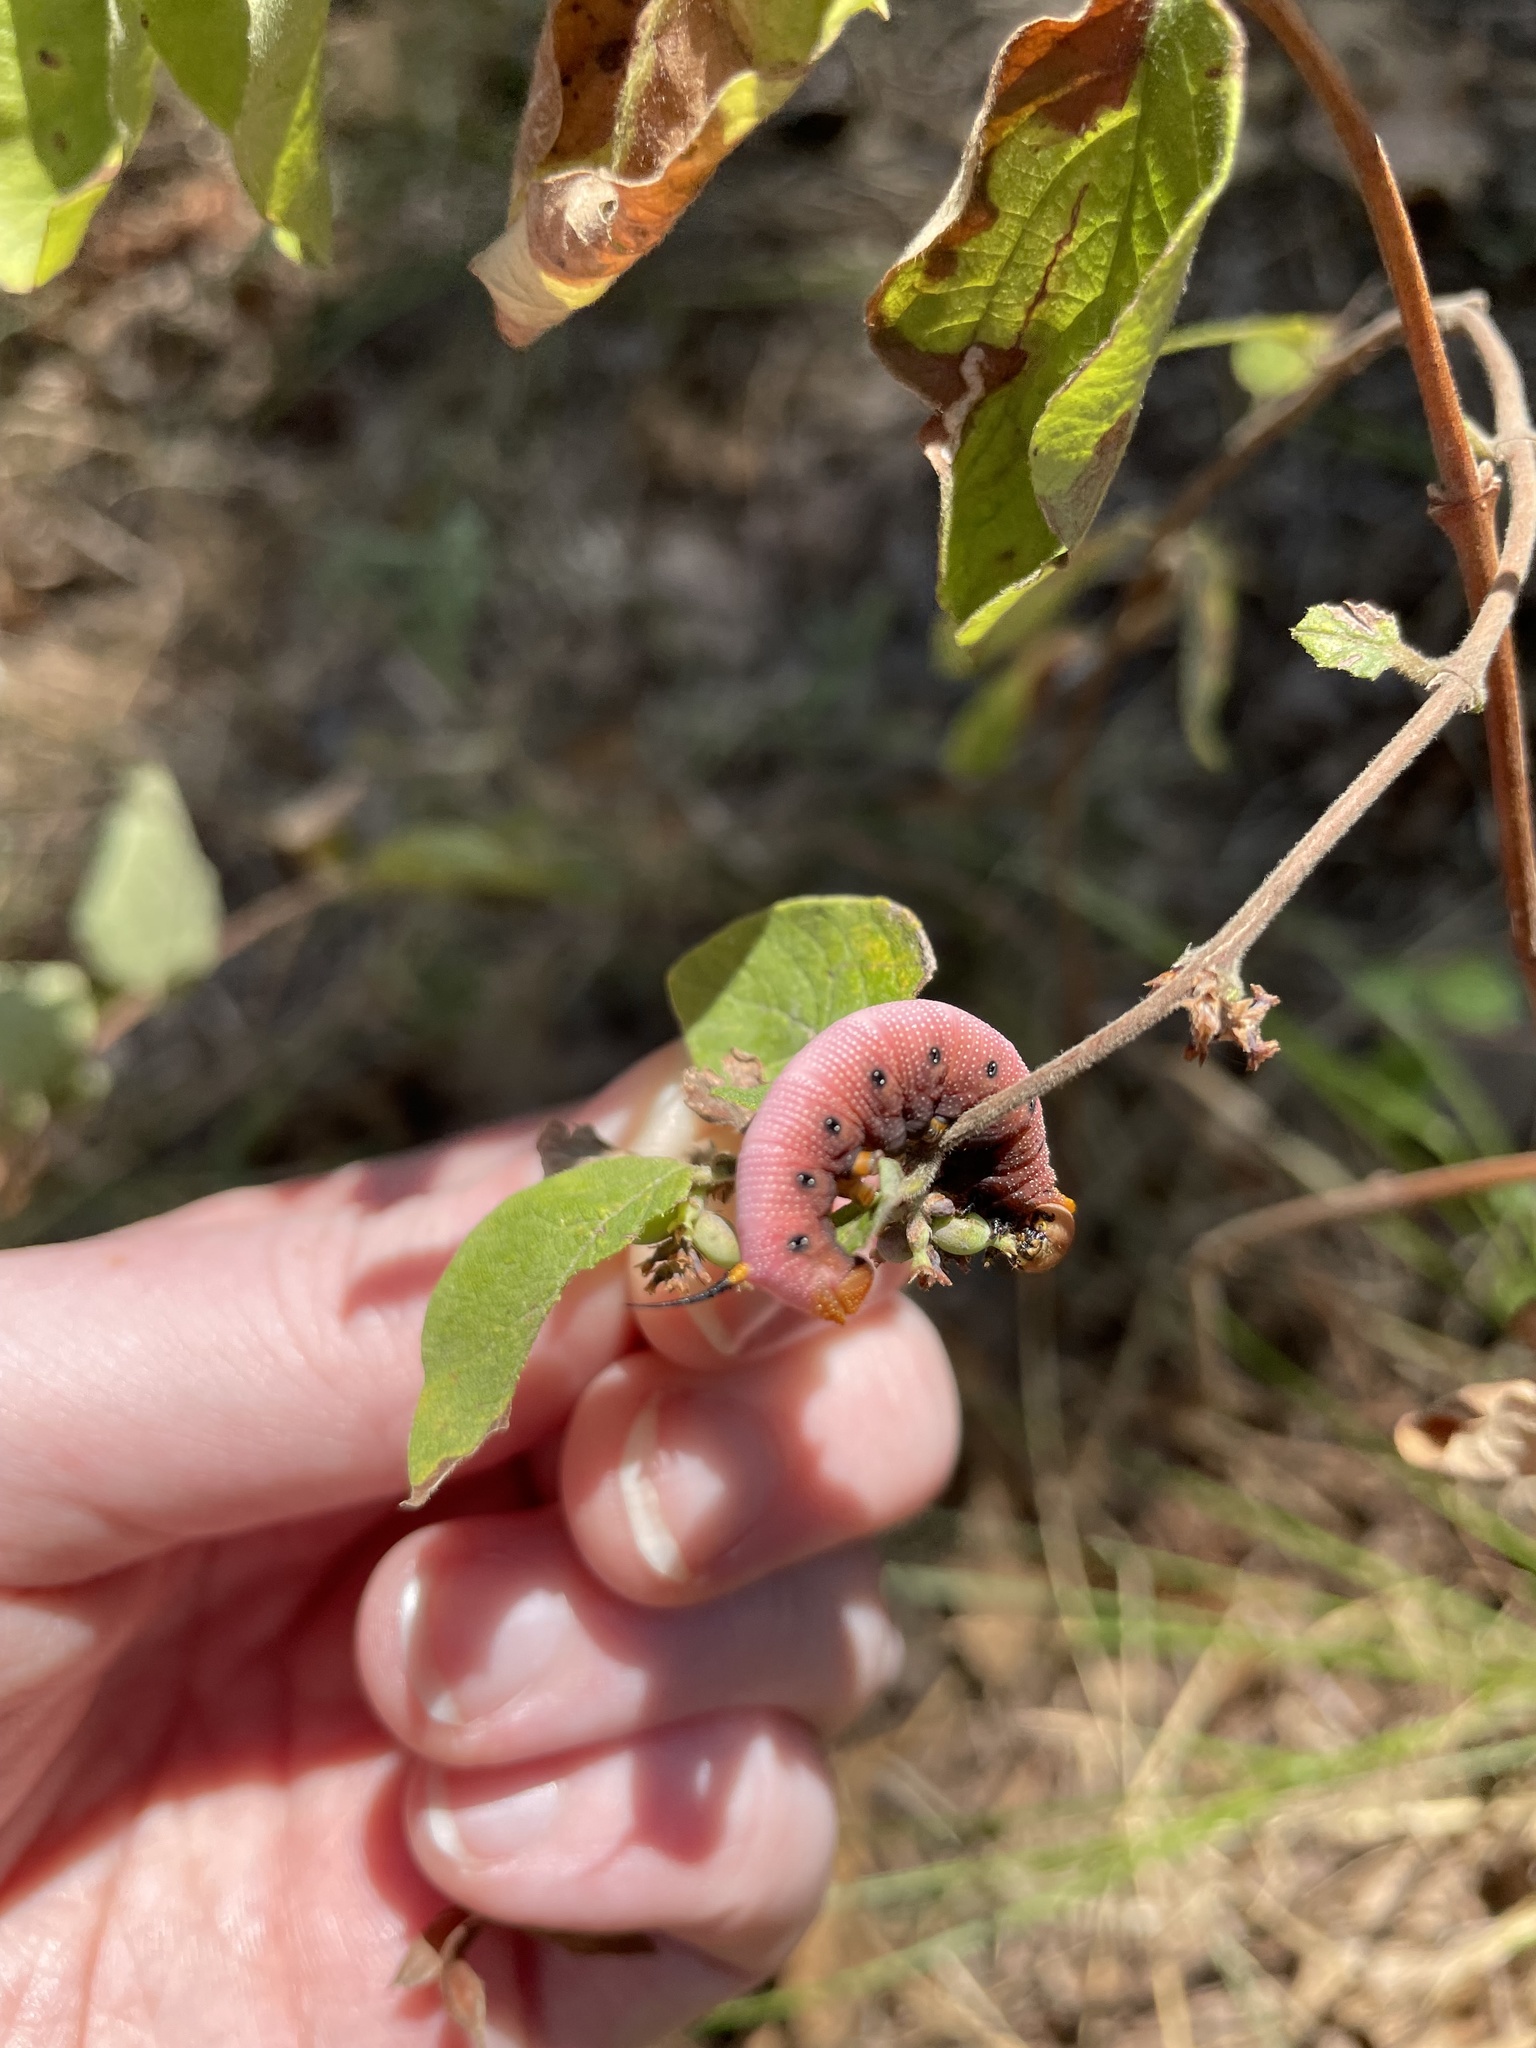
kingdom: Animalia
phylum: Arthropoda
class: Insecta
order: Lepidoptera
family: Sphingidae
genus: Hemaris
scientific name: Hemaris diffinis
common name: Bumblebee moth
